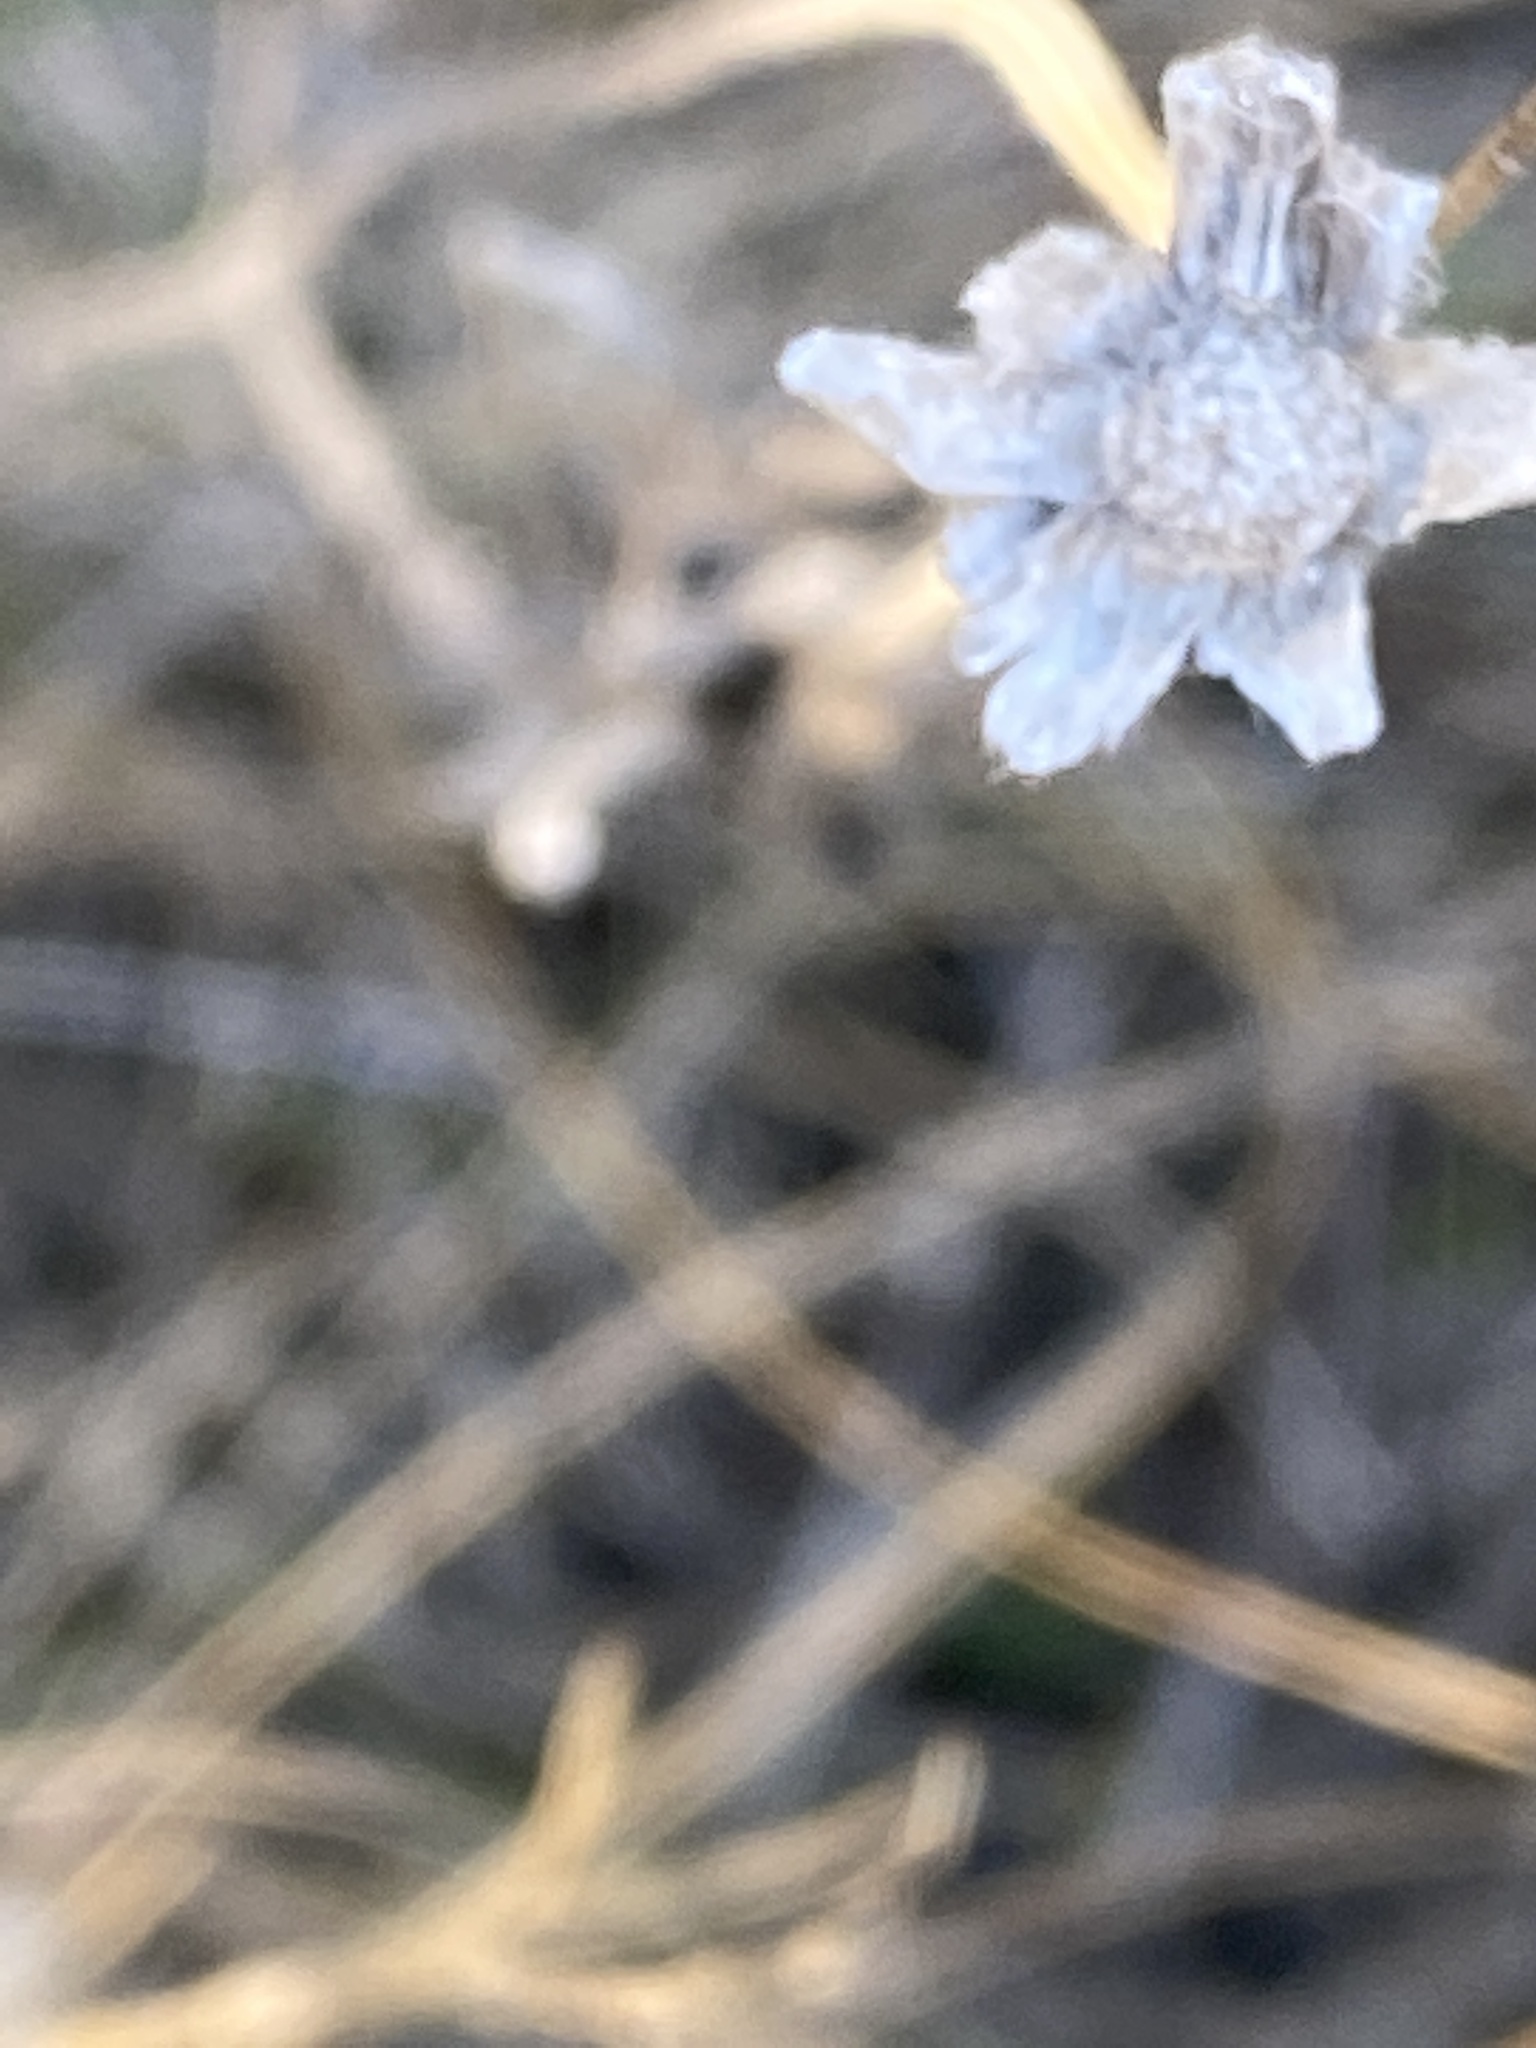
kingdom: Plantae
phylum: Tracheophyta
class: Magnoliopsida
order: Asterales
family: Asteraceae
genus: Diaperia
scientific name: Diaperia verna
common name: Many-stem rabbit-tobacco
